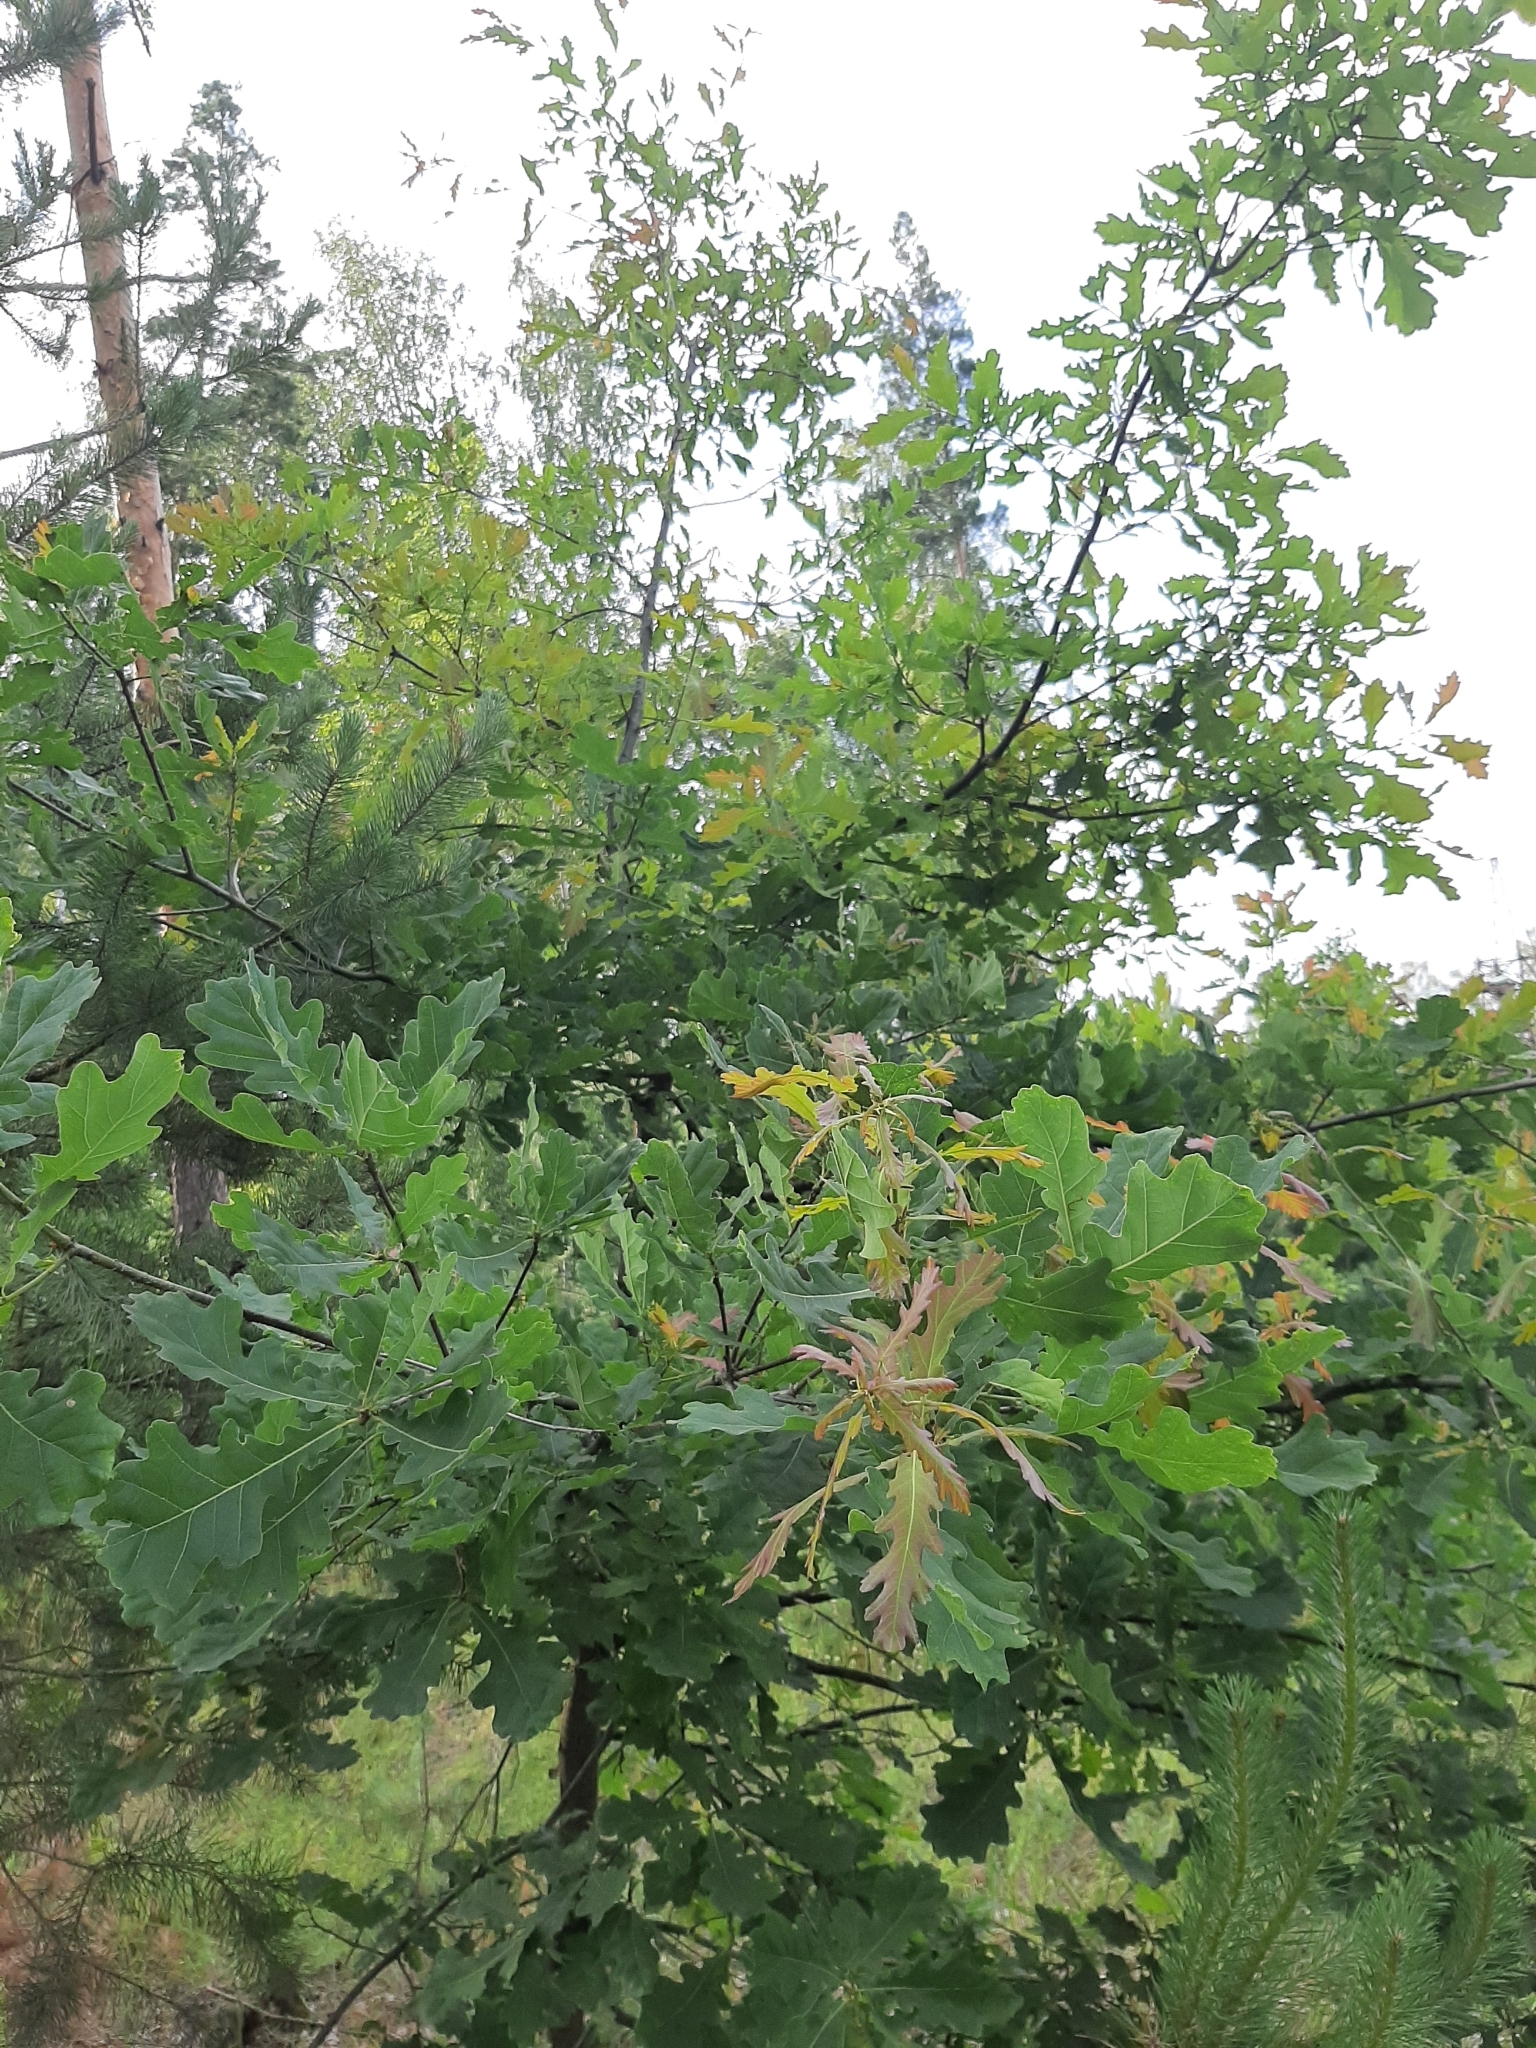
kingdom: Plantae
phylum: Tracheophyta
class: Magnoliopsida
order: Fagales
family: Fagaceae
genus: Quercus
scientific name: Quercus robur
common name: Pedunculate oak
